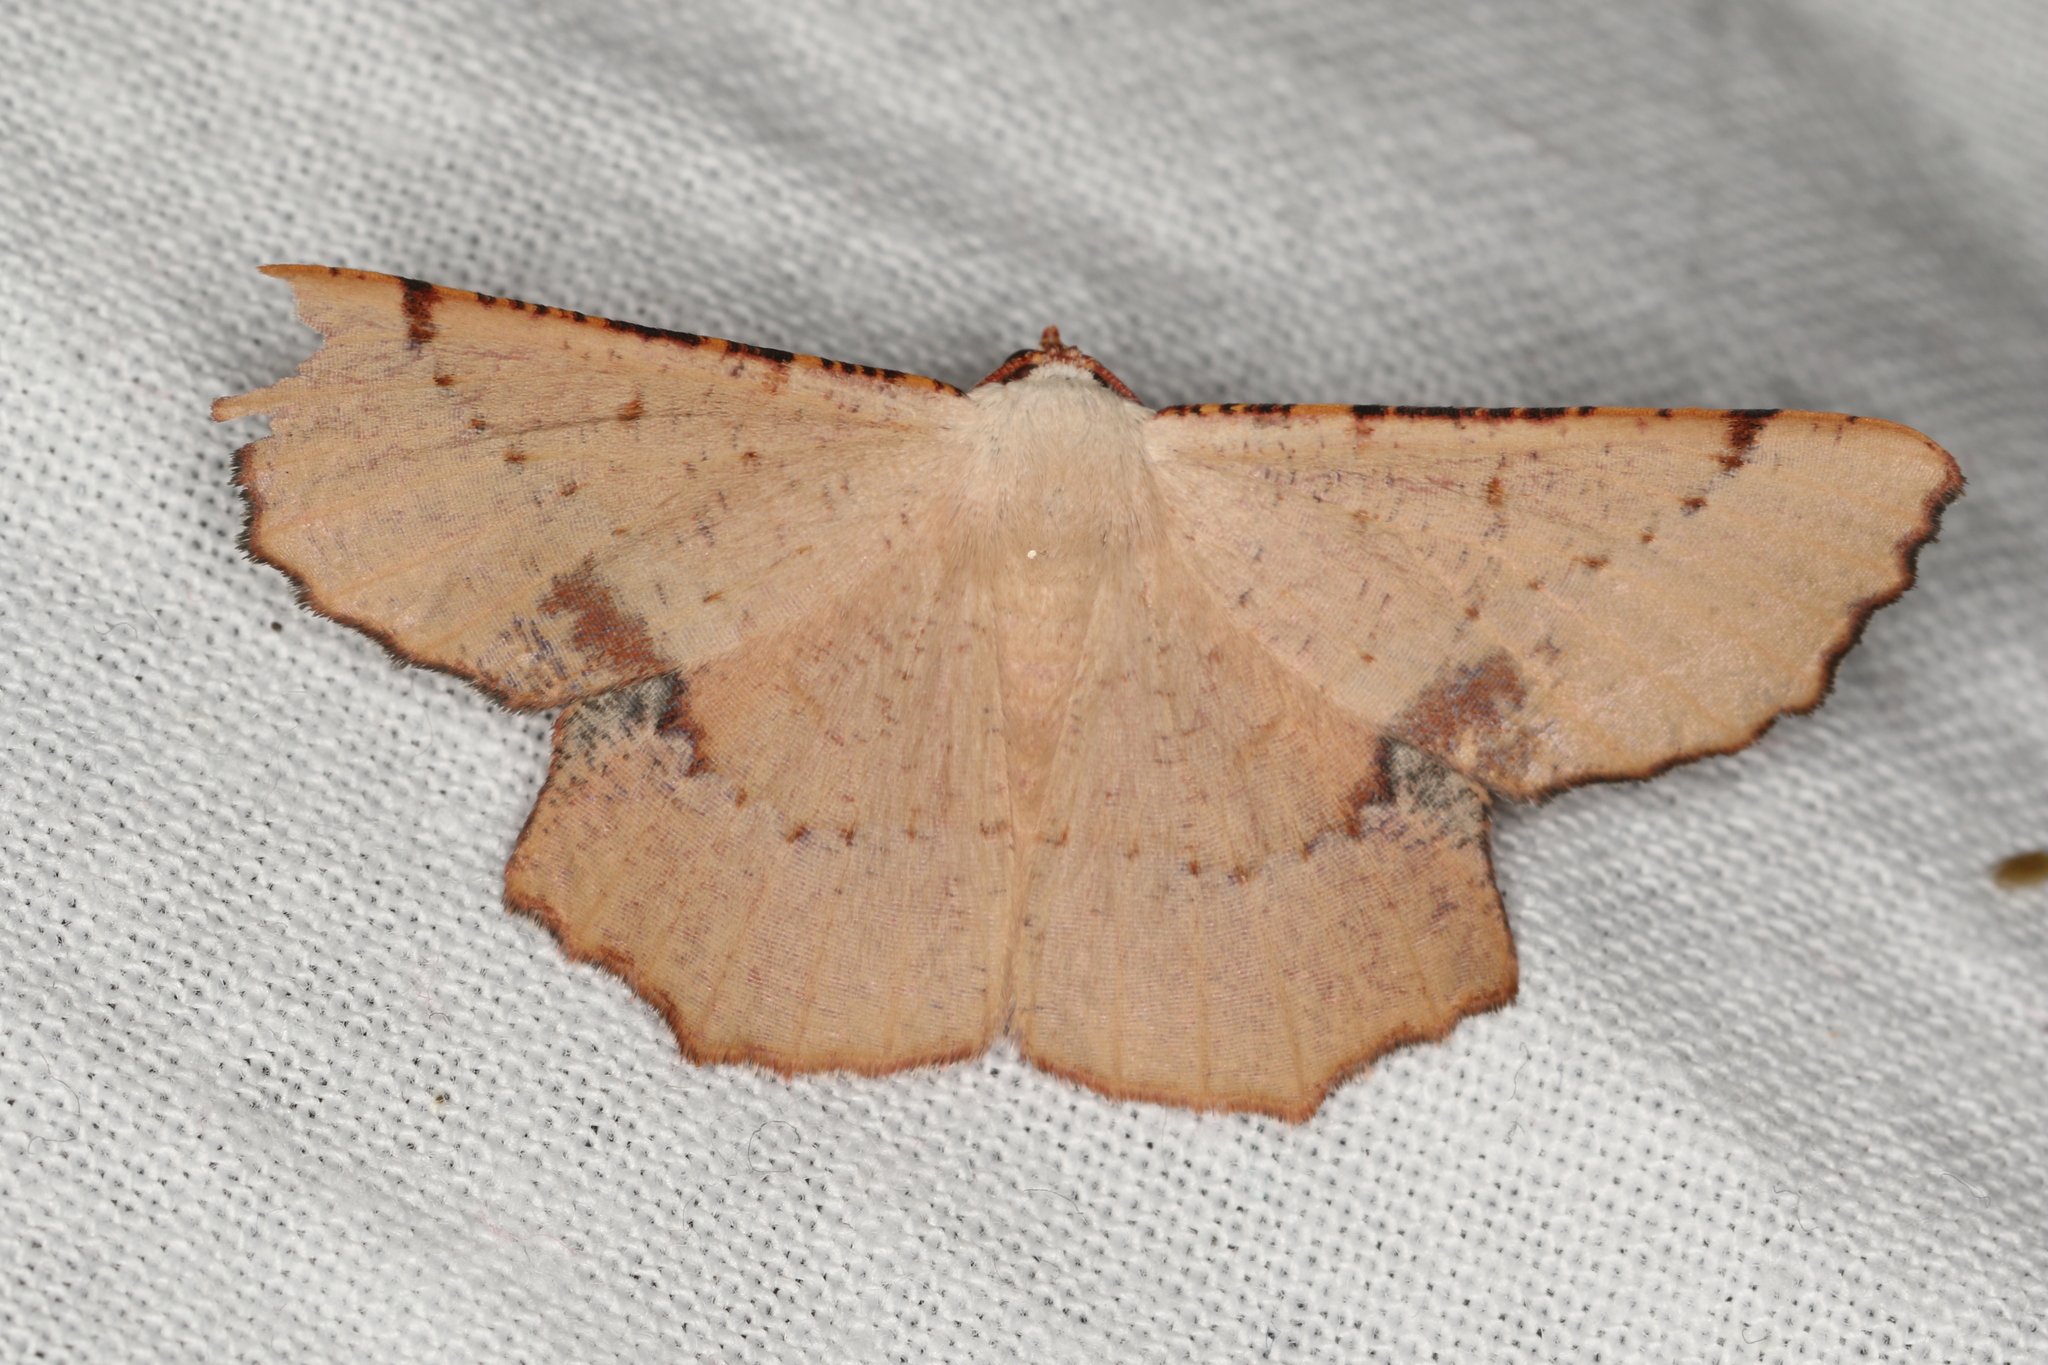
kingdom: Animalia
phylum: Arthropoda
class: Insecta
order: Lepidoptera
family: Geometridae
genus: Cernia
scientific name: Cernia amyclaria
